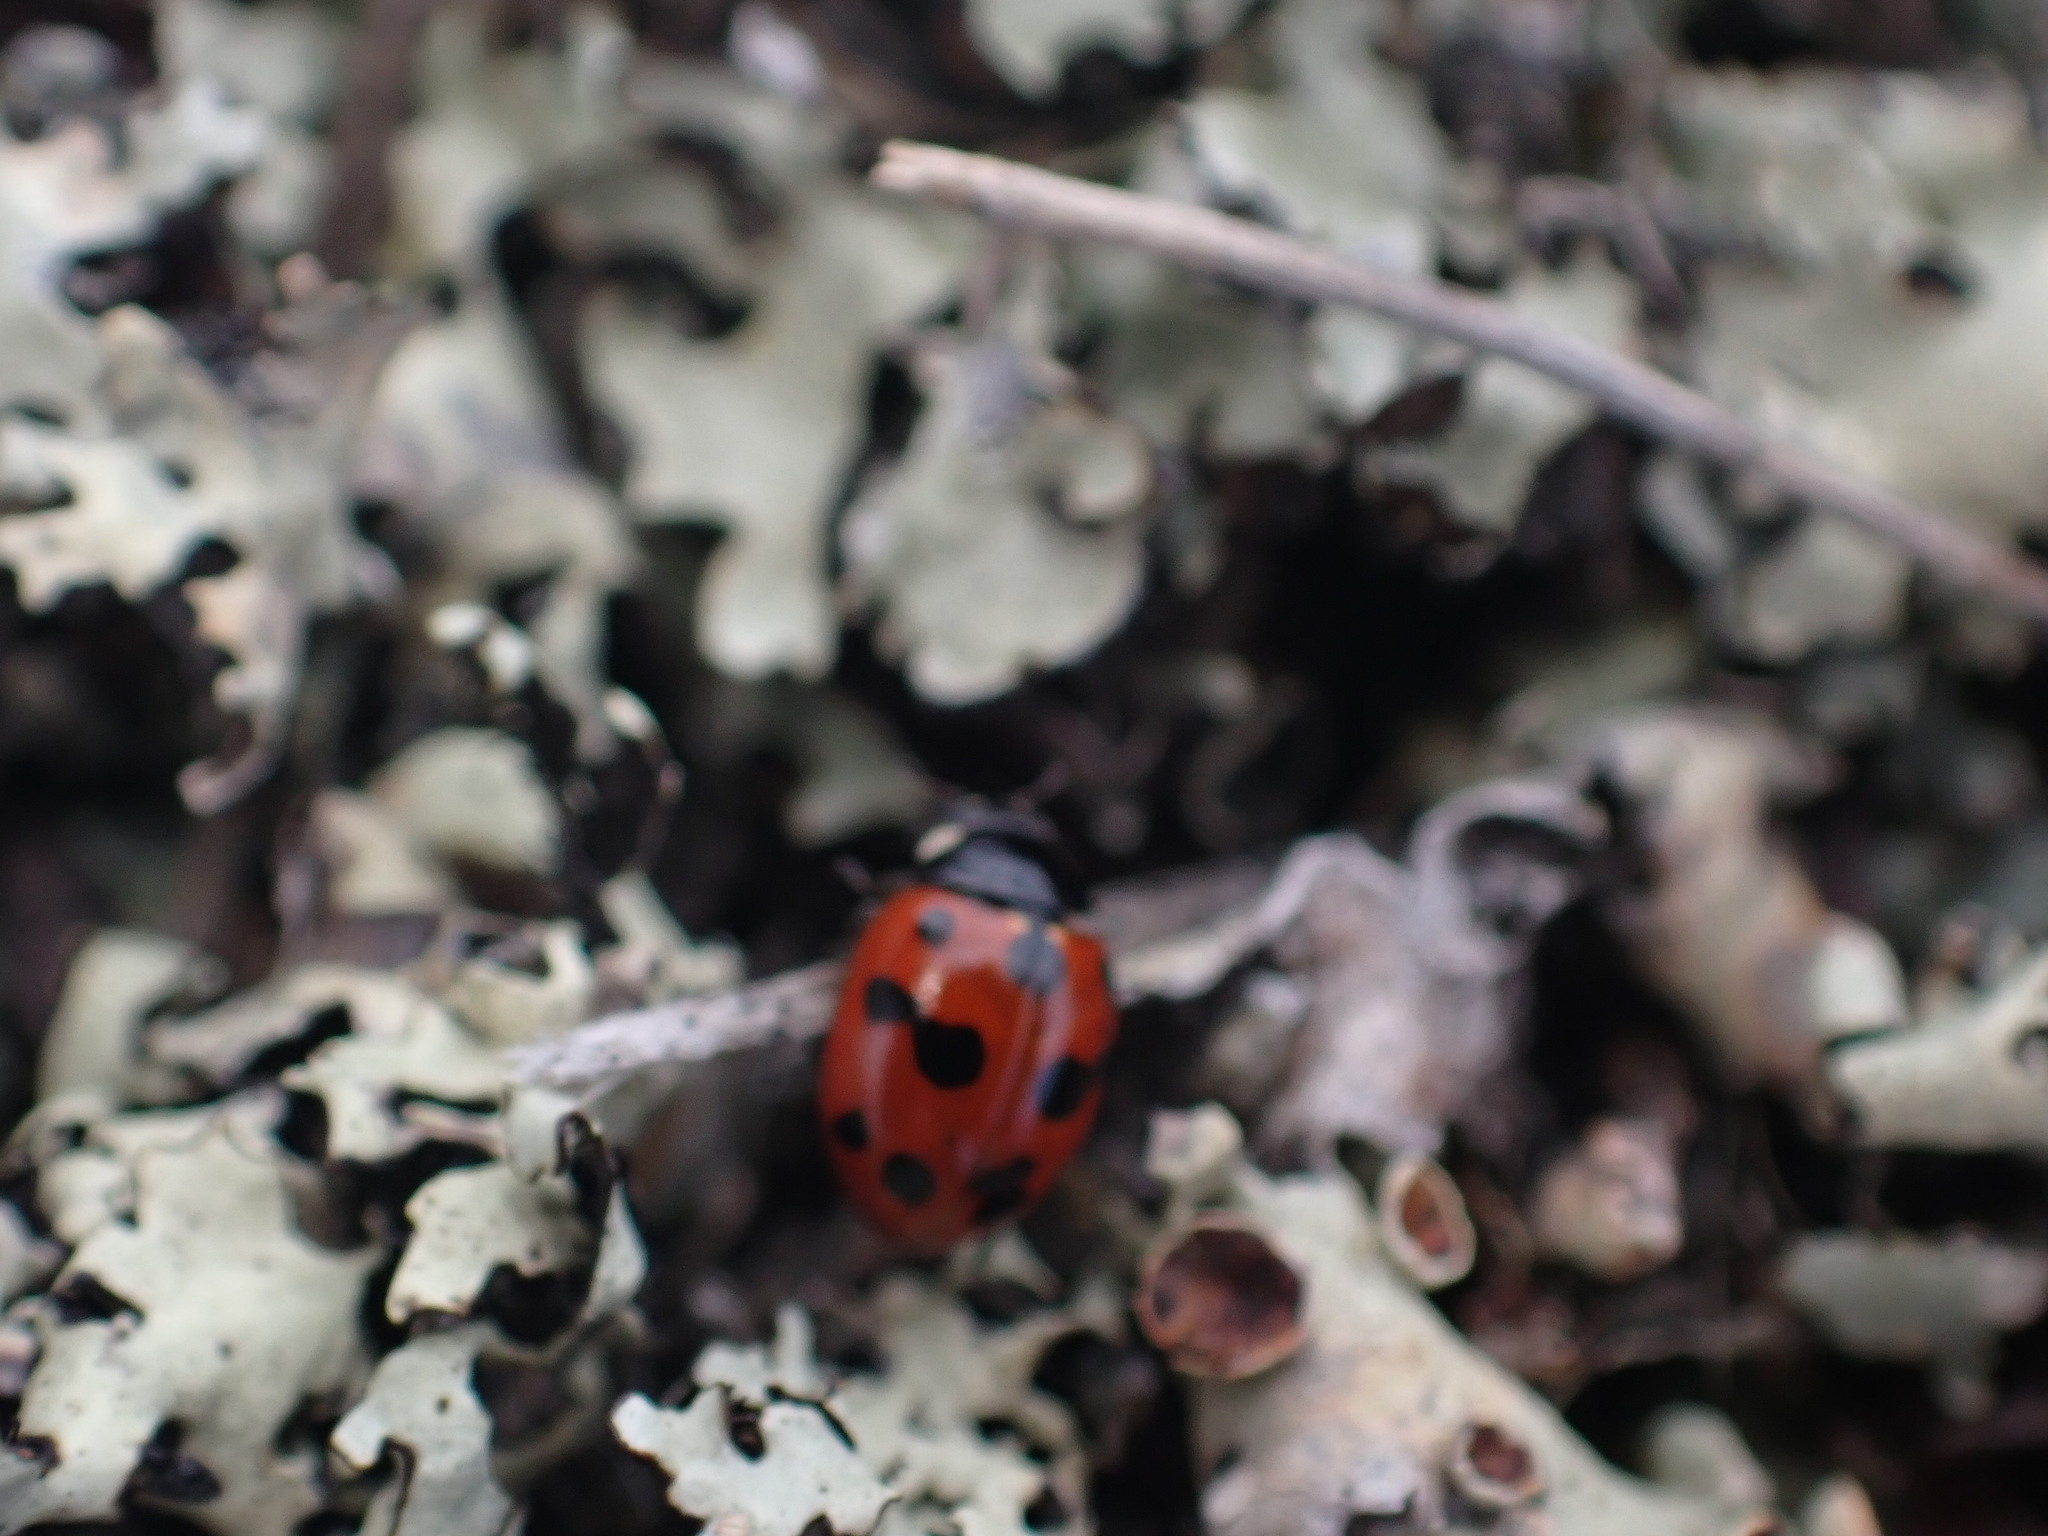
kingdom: Animalia
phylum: Arthropoda
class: Insecta
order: Coleoptera
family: Coccinellidae
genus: Coccinella
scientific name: Coccinella undecimpunctata
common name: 11-spot ladybird
